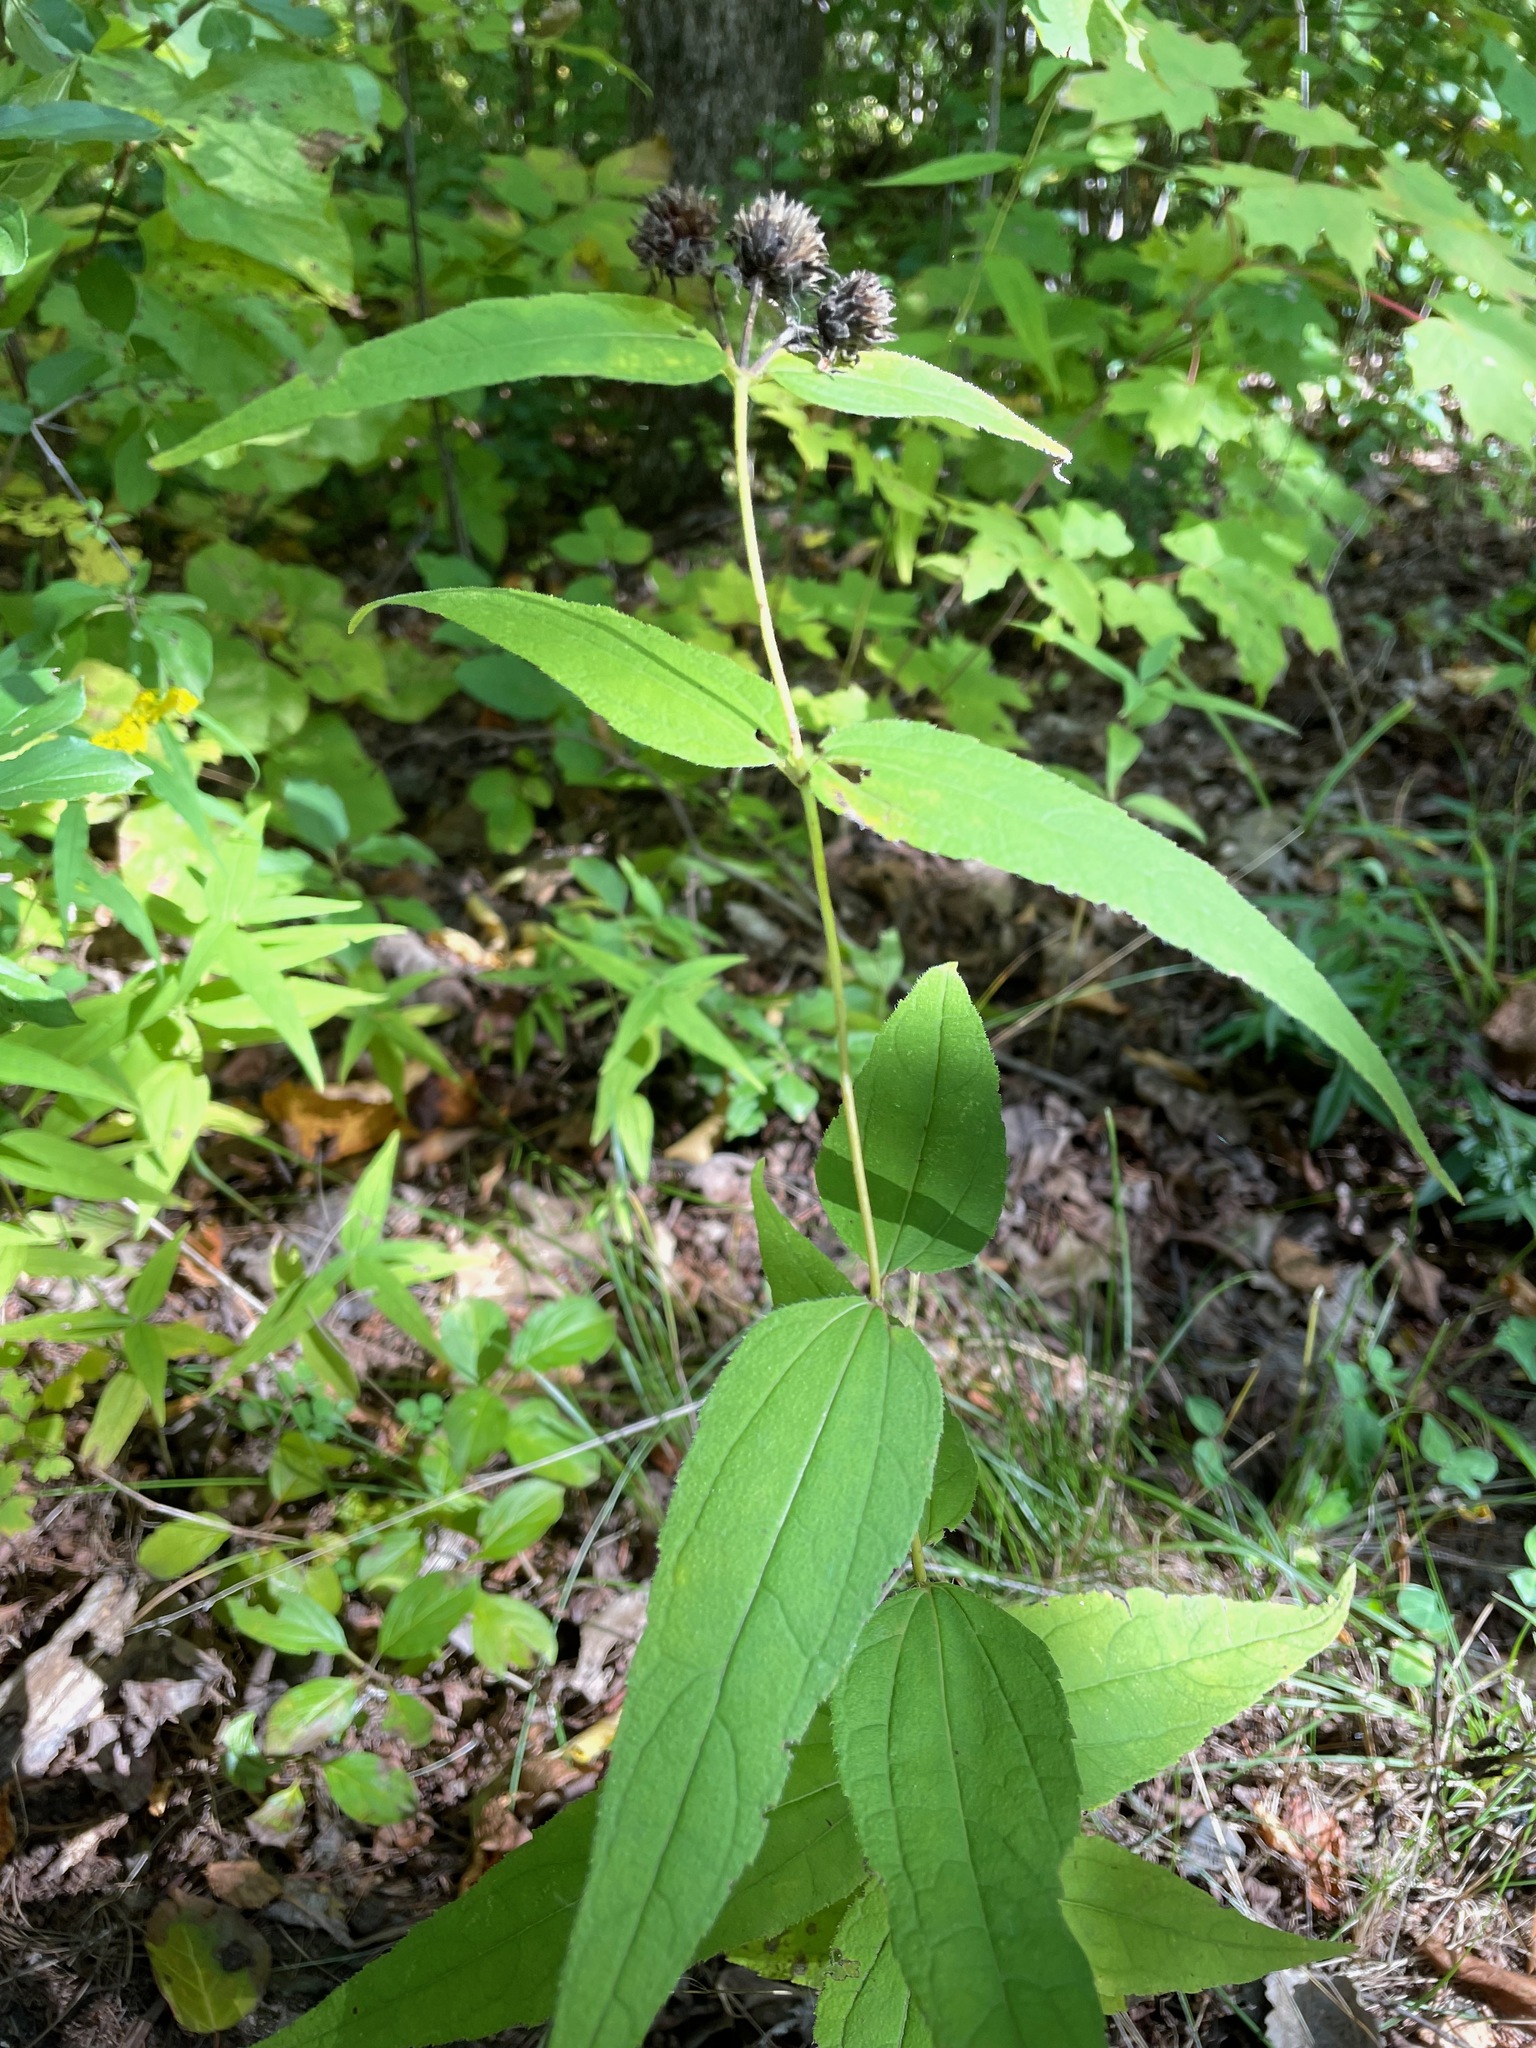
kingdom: Plantae
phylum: Tracheophyta
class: Magnoliopsida
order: Asterales
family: Asteraceae
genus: Helianthus
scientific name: Helianthus divaricatus
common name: Divergent sunflower
